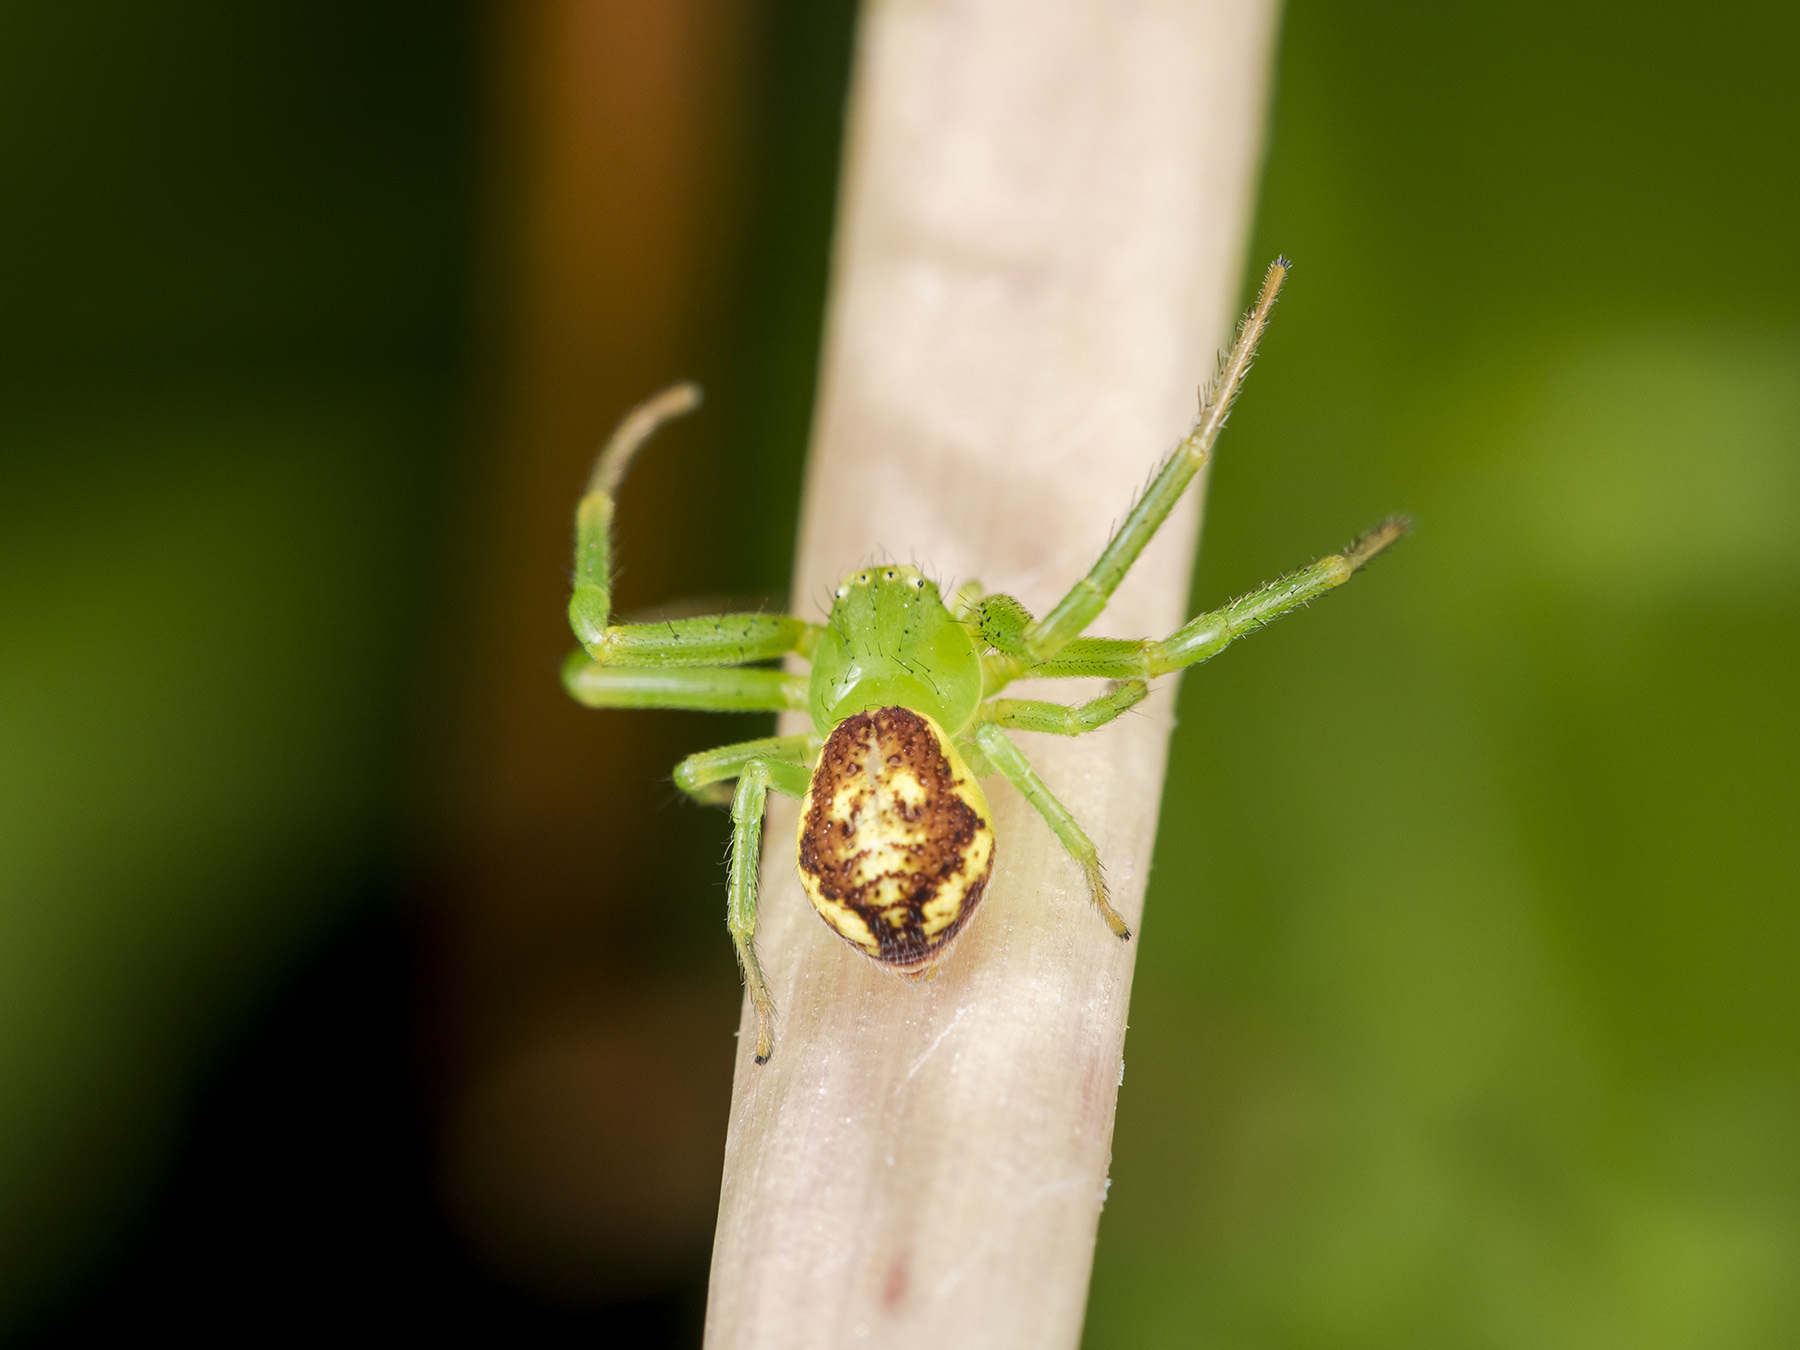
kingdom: Animalia
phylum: Arthropoda
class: Arachnida
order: Araneae
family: Thomisidae
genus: Diaea
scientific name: Diaea suspiciosa
